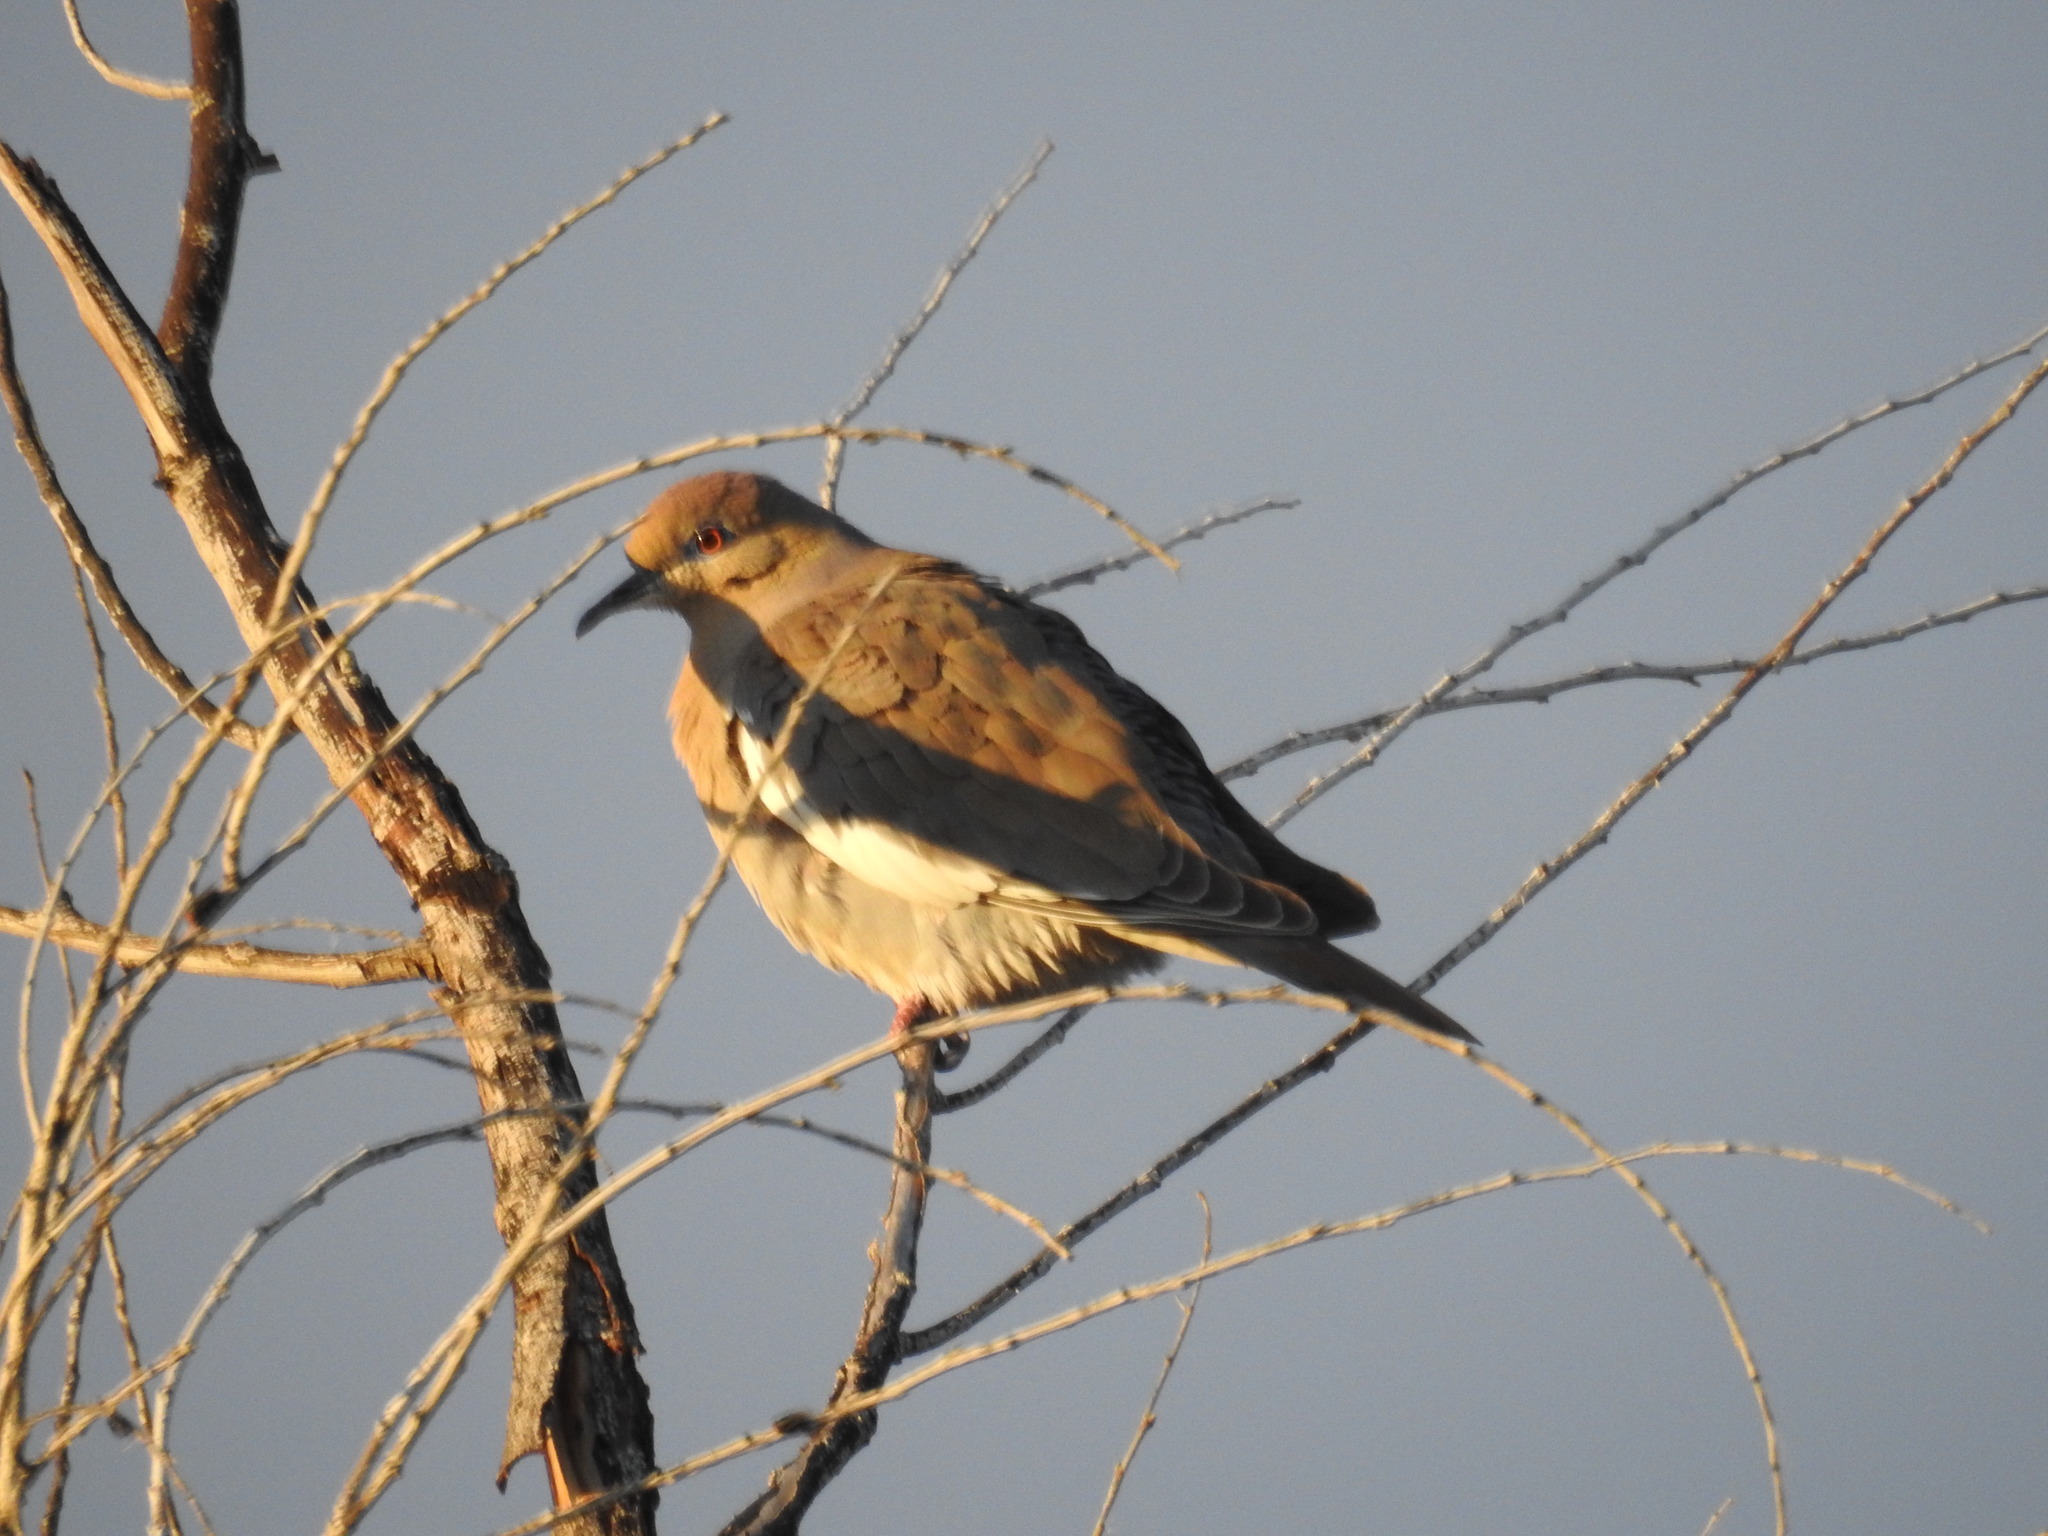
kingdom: Animalia
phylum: Chordata
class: Aves
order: Columbiformes
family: Columbidae
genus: Zenaida
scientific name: Zenaida asiatica
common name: White-winged dove
